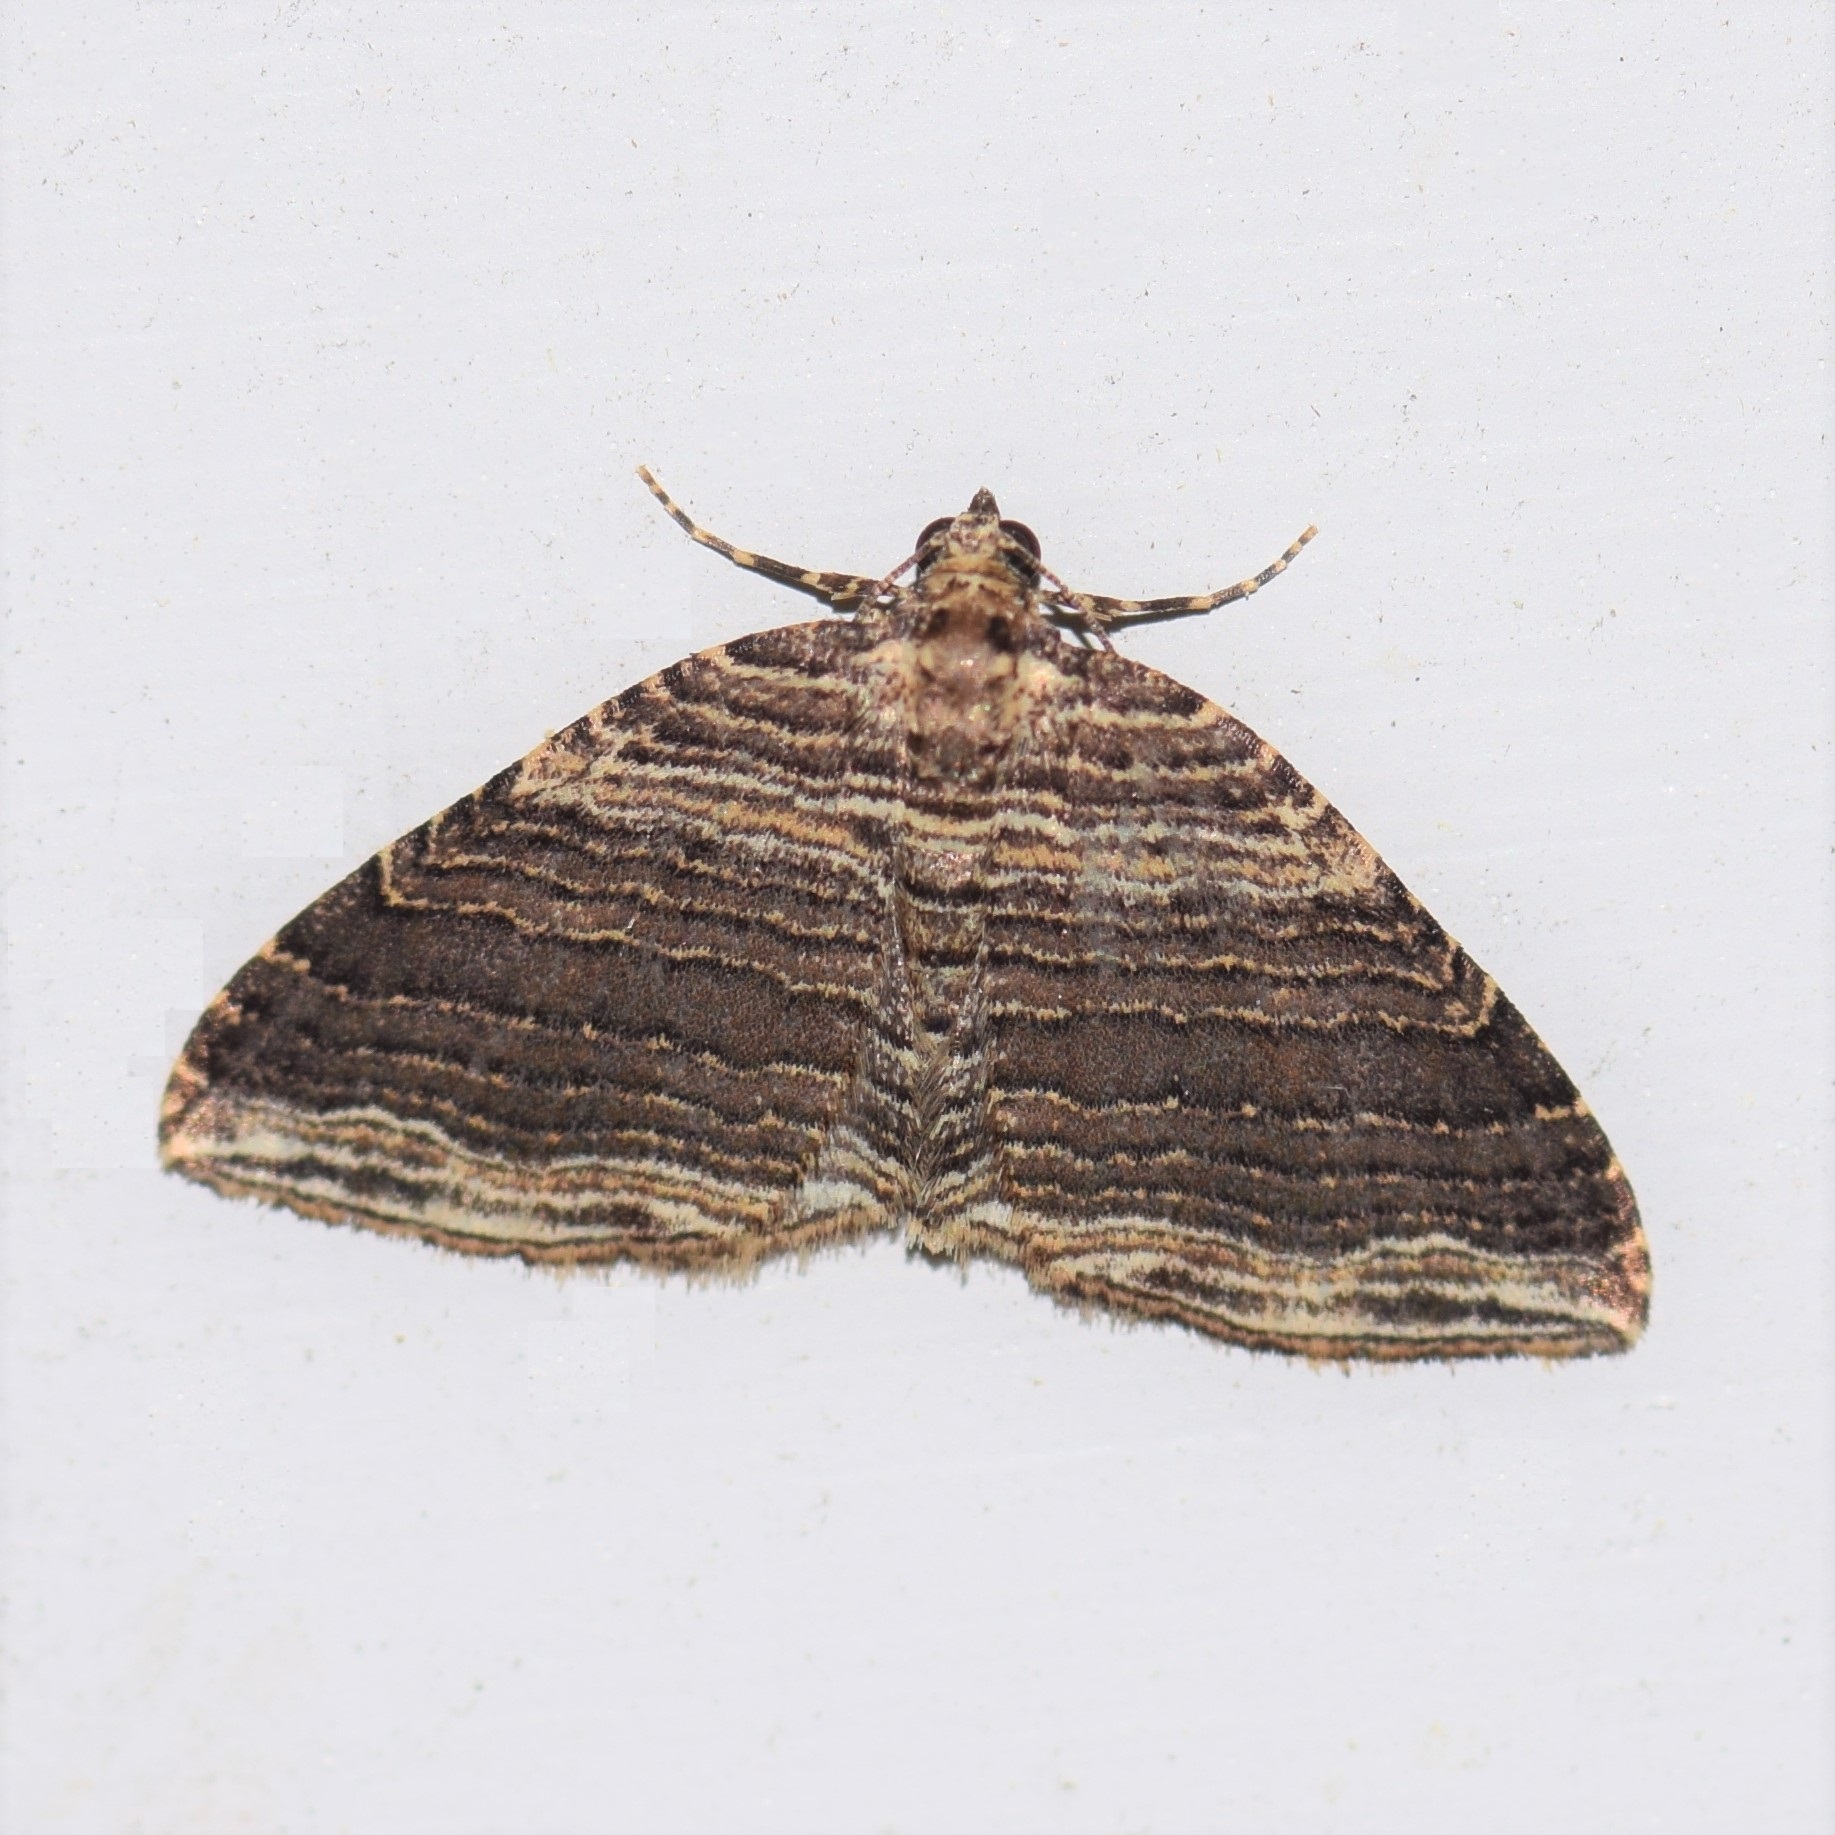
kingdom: Animalia
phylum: Arthropoda
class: Insecta
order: Lepidoptera
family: Geometridae
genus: Anticlea
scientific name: Anticlea multiferata
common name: Many-lined carpet
